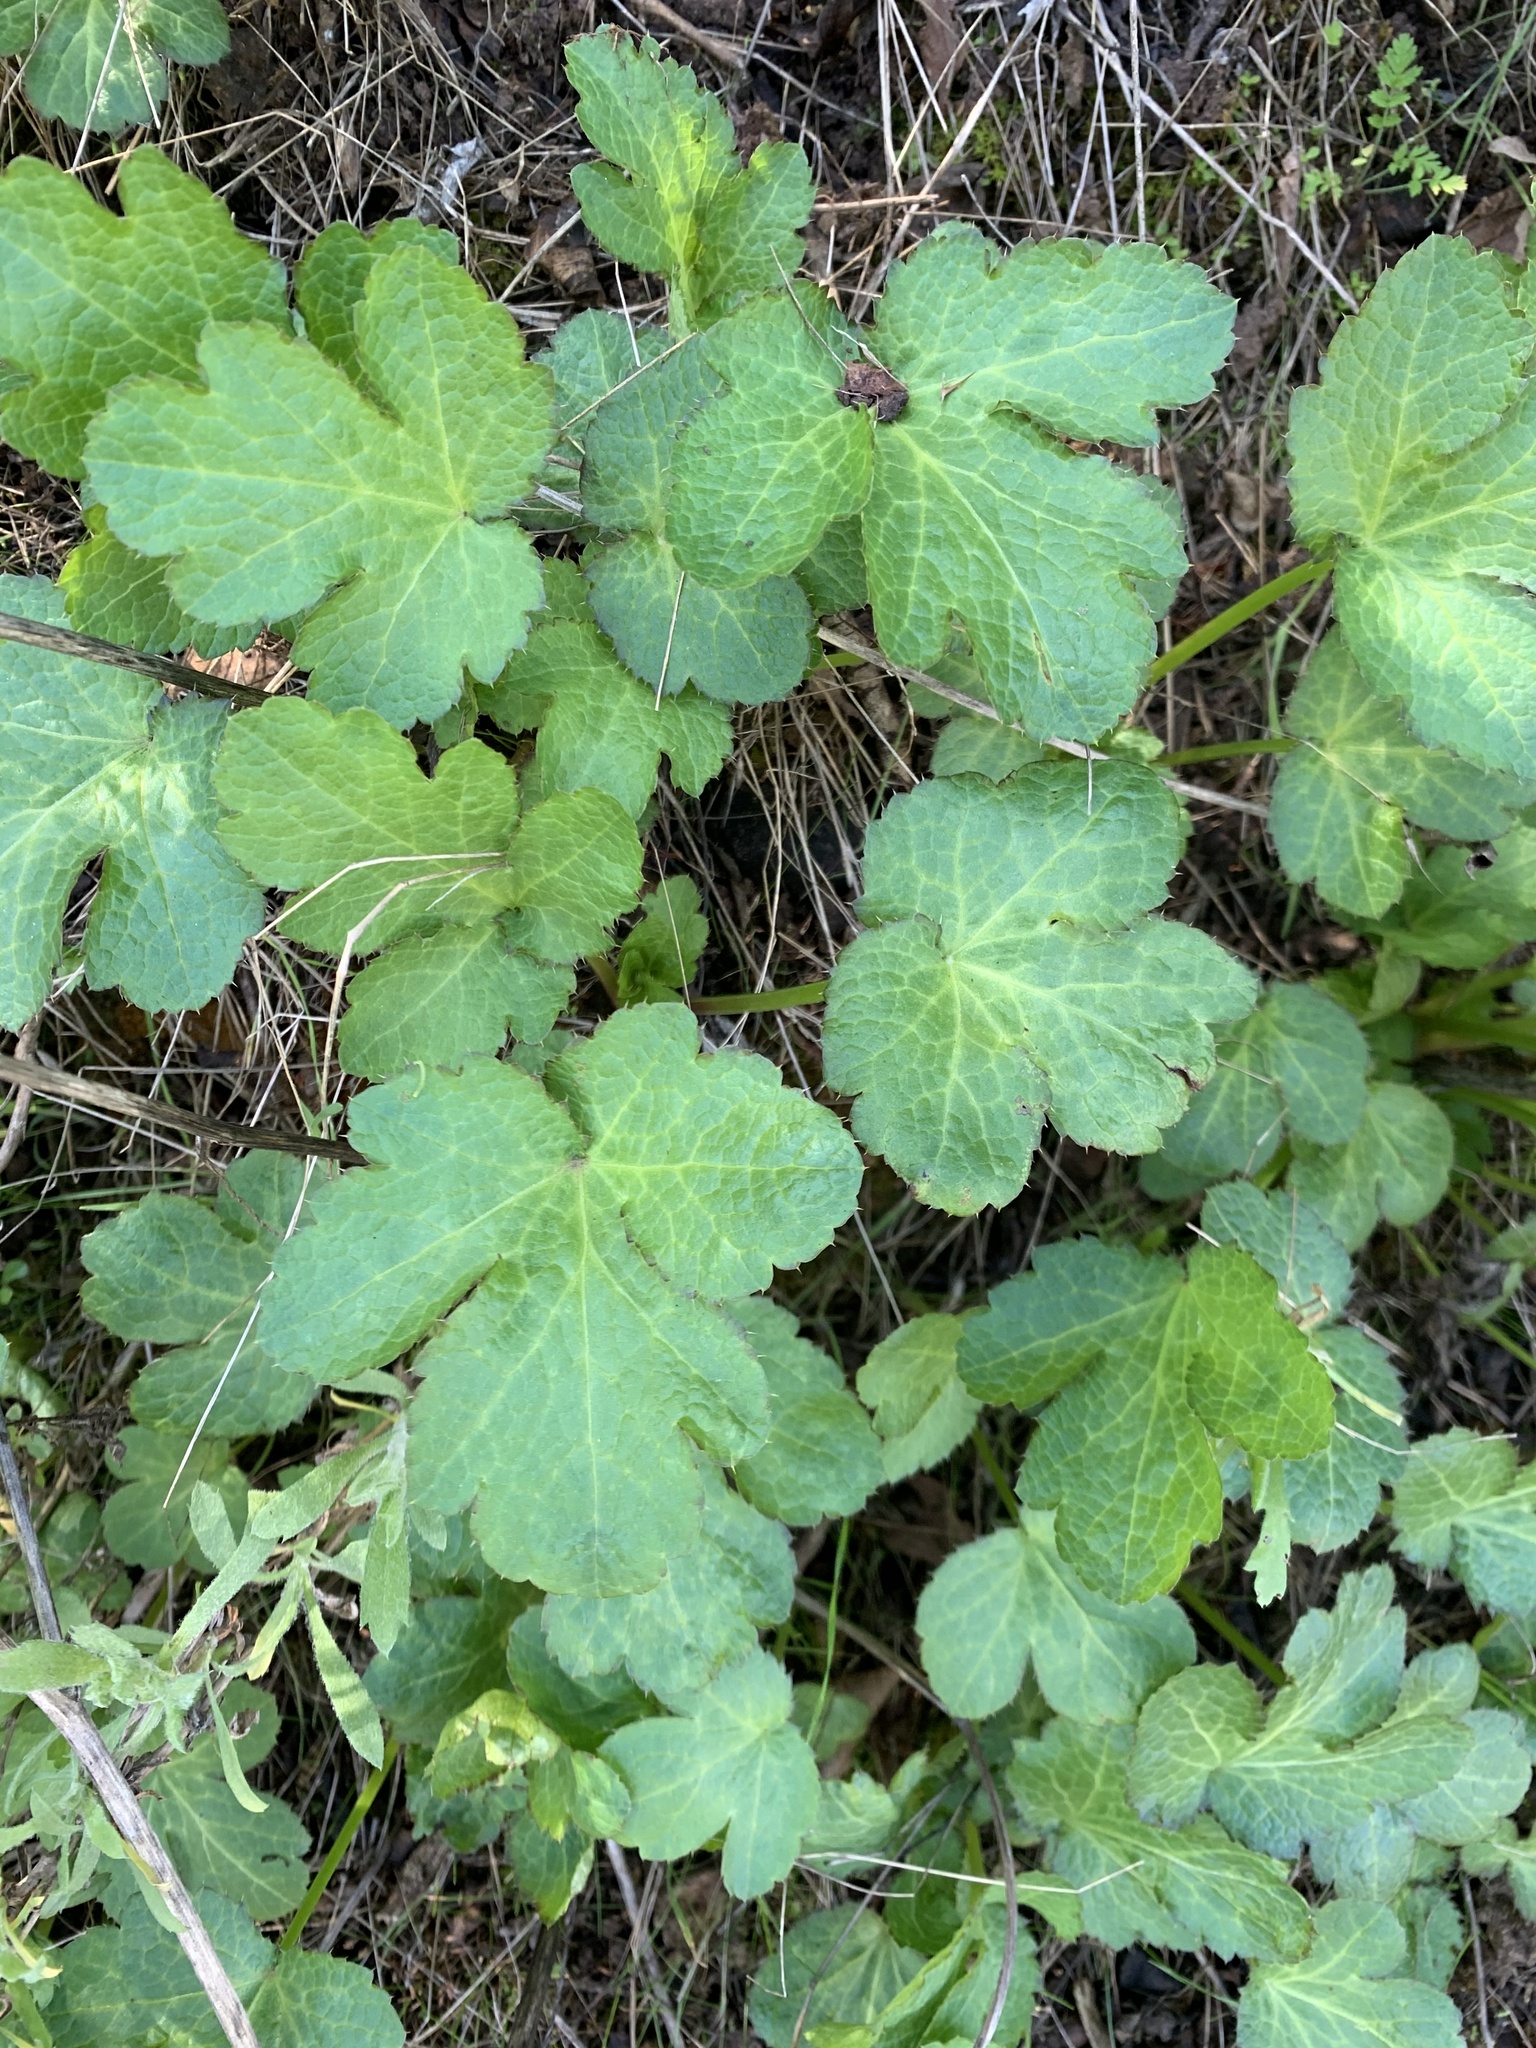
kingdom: Plantae
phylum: Tracheophyta
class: Magnoliopsida
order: Apiales
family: Apiaceae
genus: Sanicula
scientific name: Sanicula crassicaulis
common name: Western snakeroot
